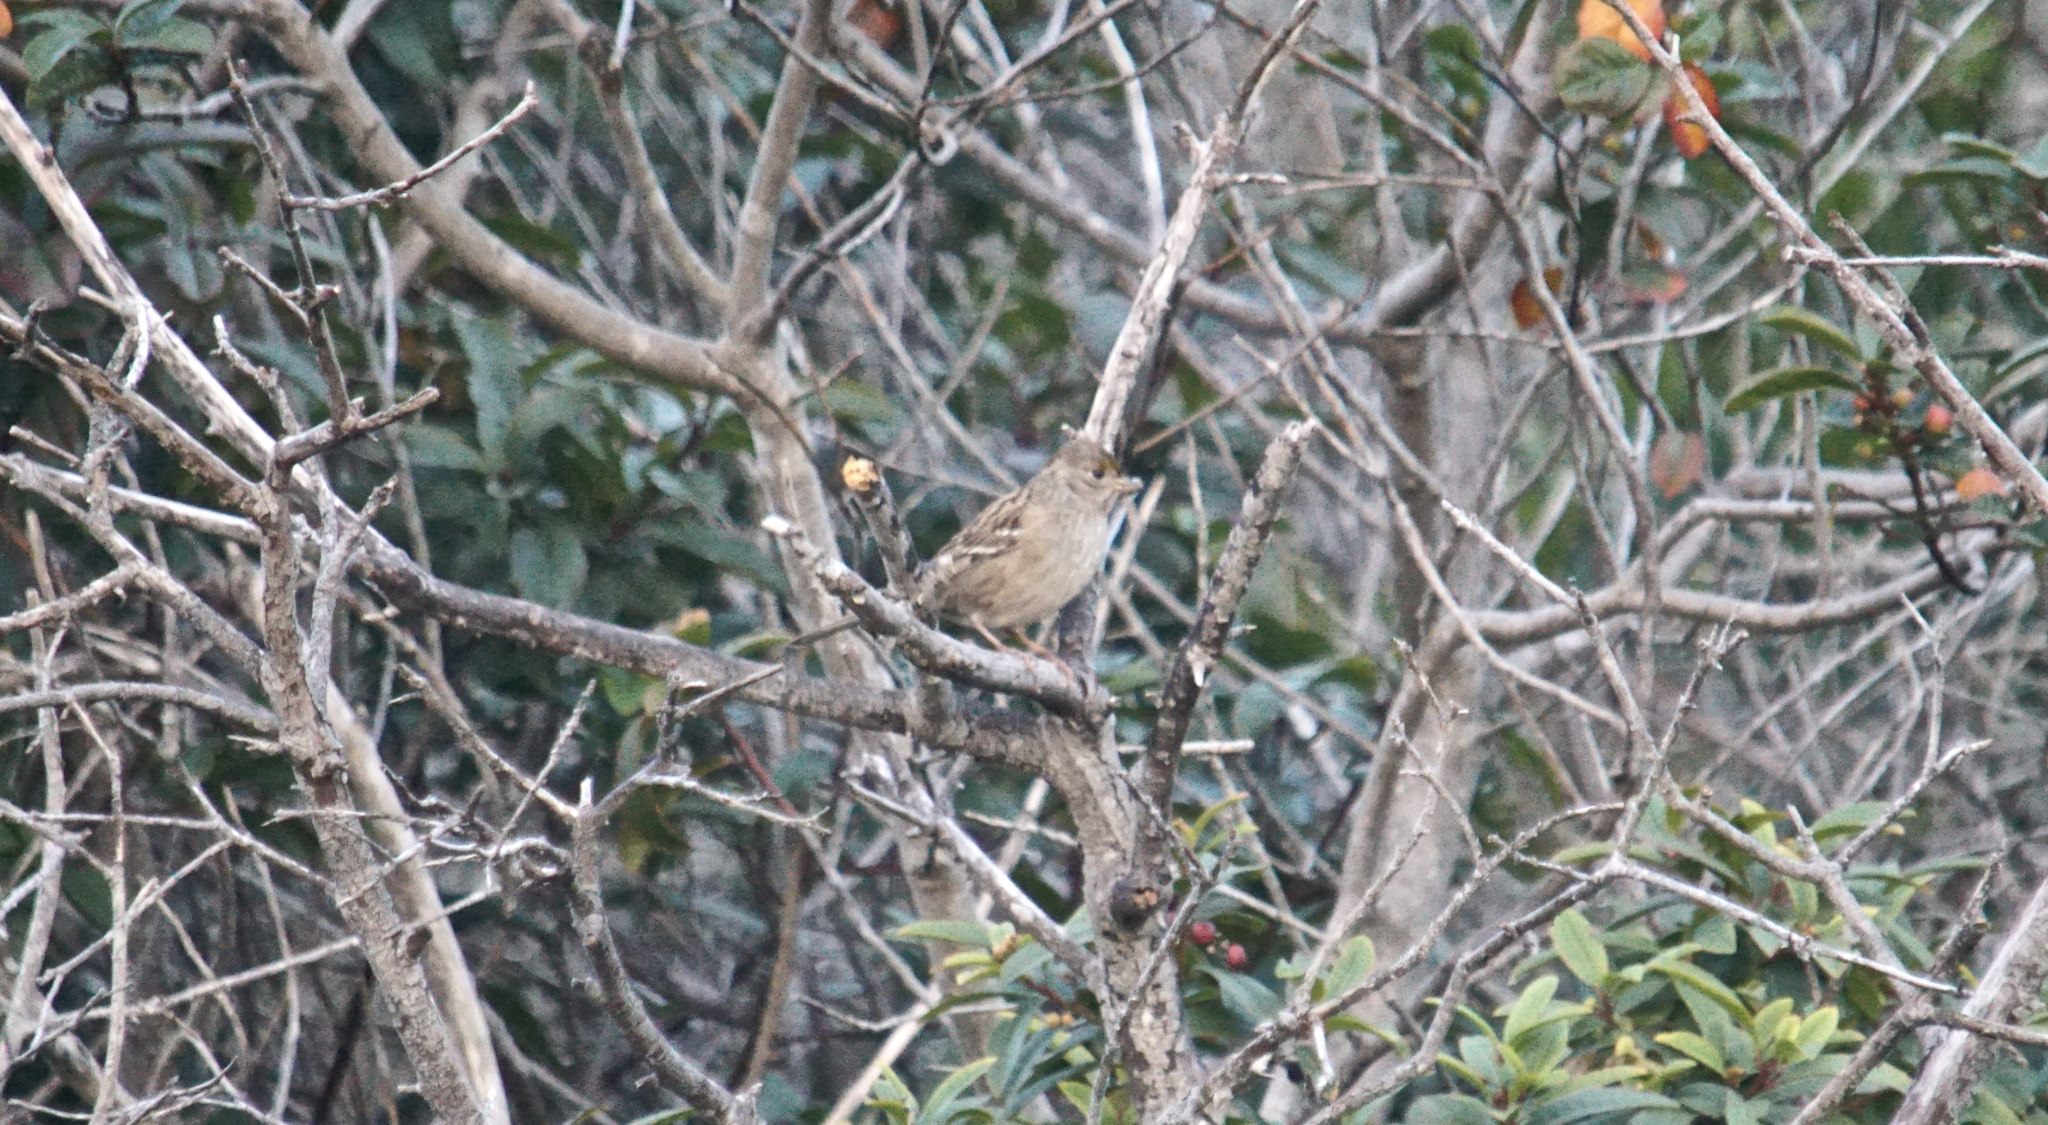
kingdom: Animalia
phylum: Chordata
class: Aves
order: Passeriformes
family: Passerellidae
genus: Zonotrichia
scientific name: Zonotrichia atricapilla
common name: Golden-crowned sparrow
